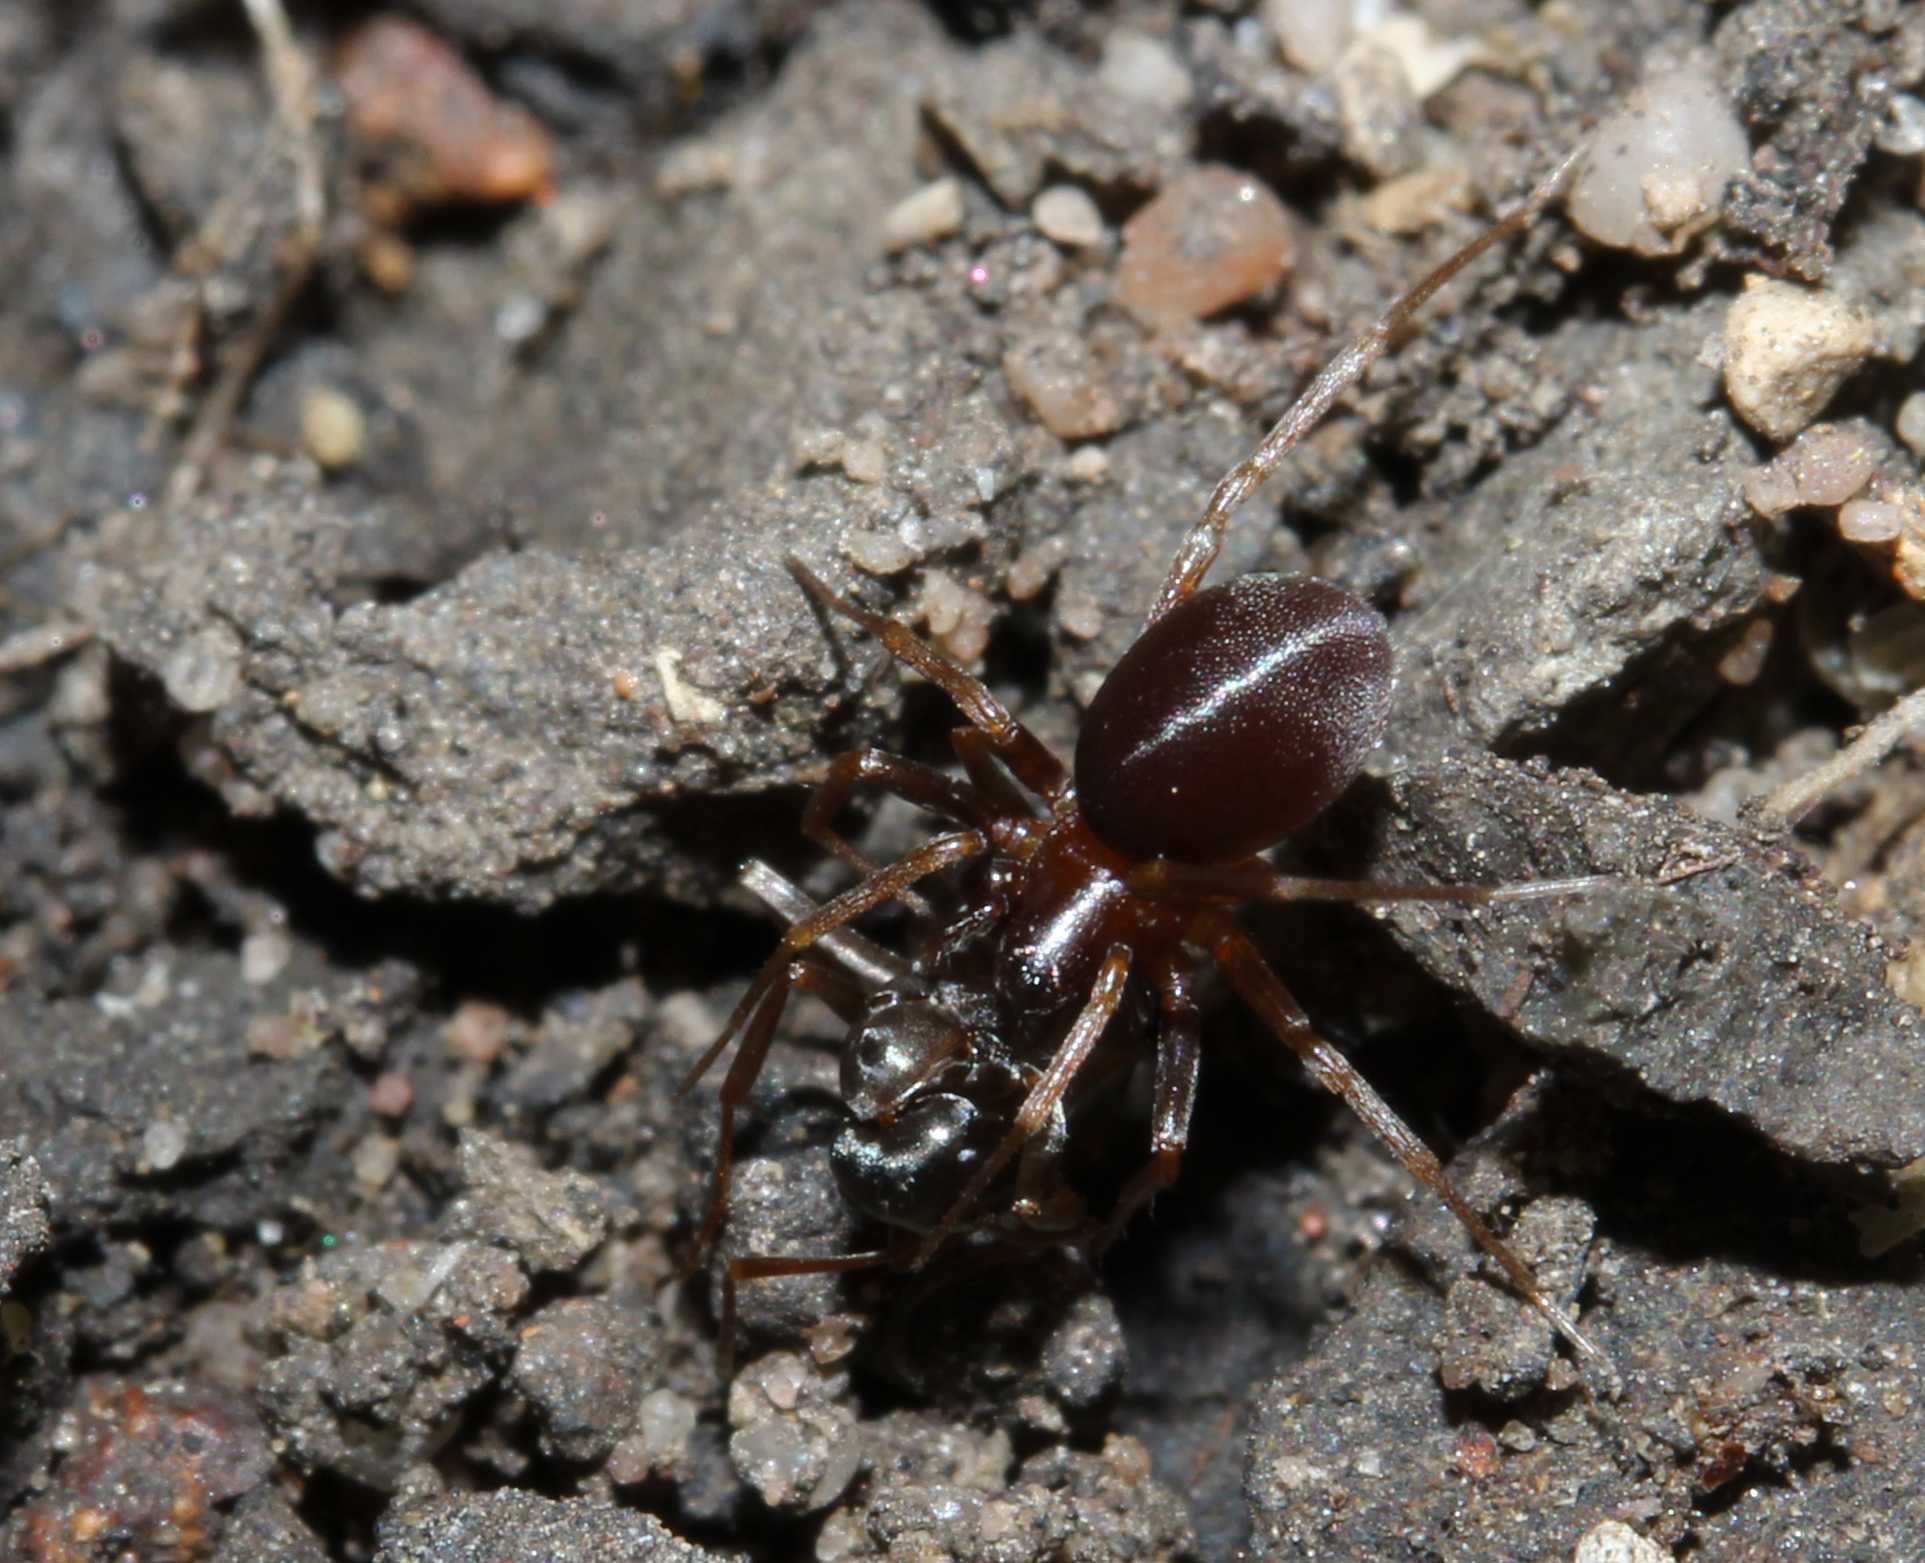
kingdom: Animalia
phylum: Arthropoda
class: Arachnida
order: Araneae
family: Zodariidae
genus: Zodarion
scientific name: Zodarion
